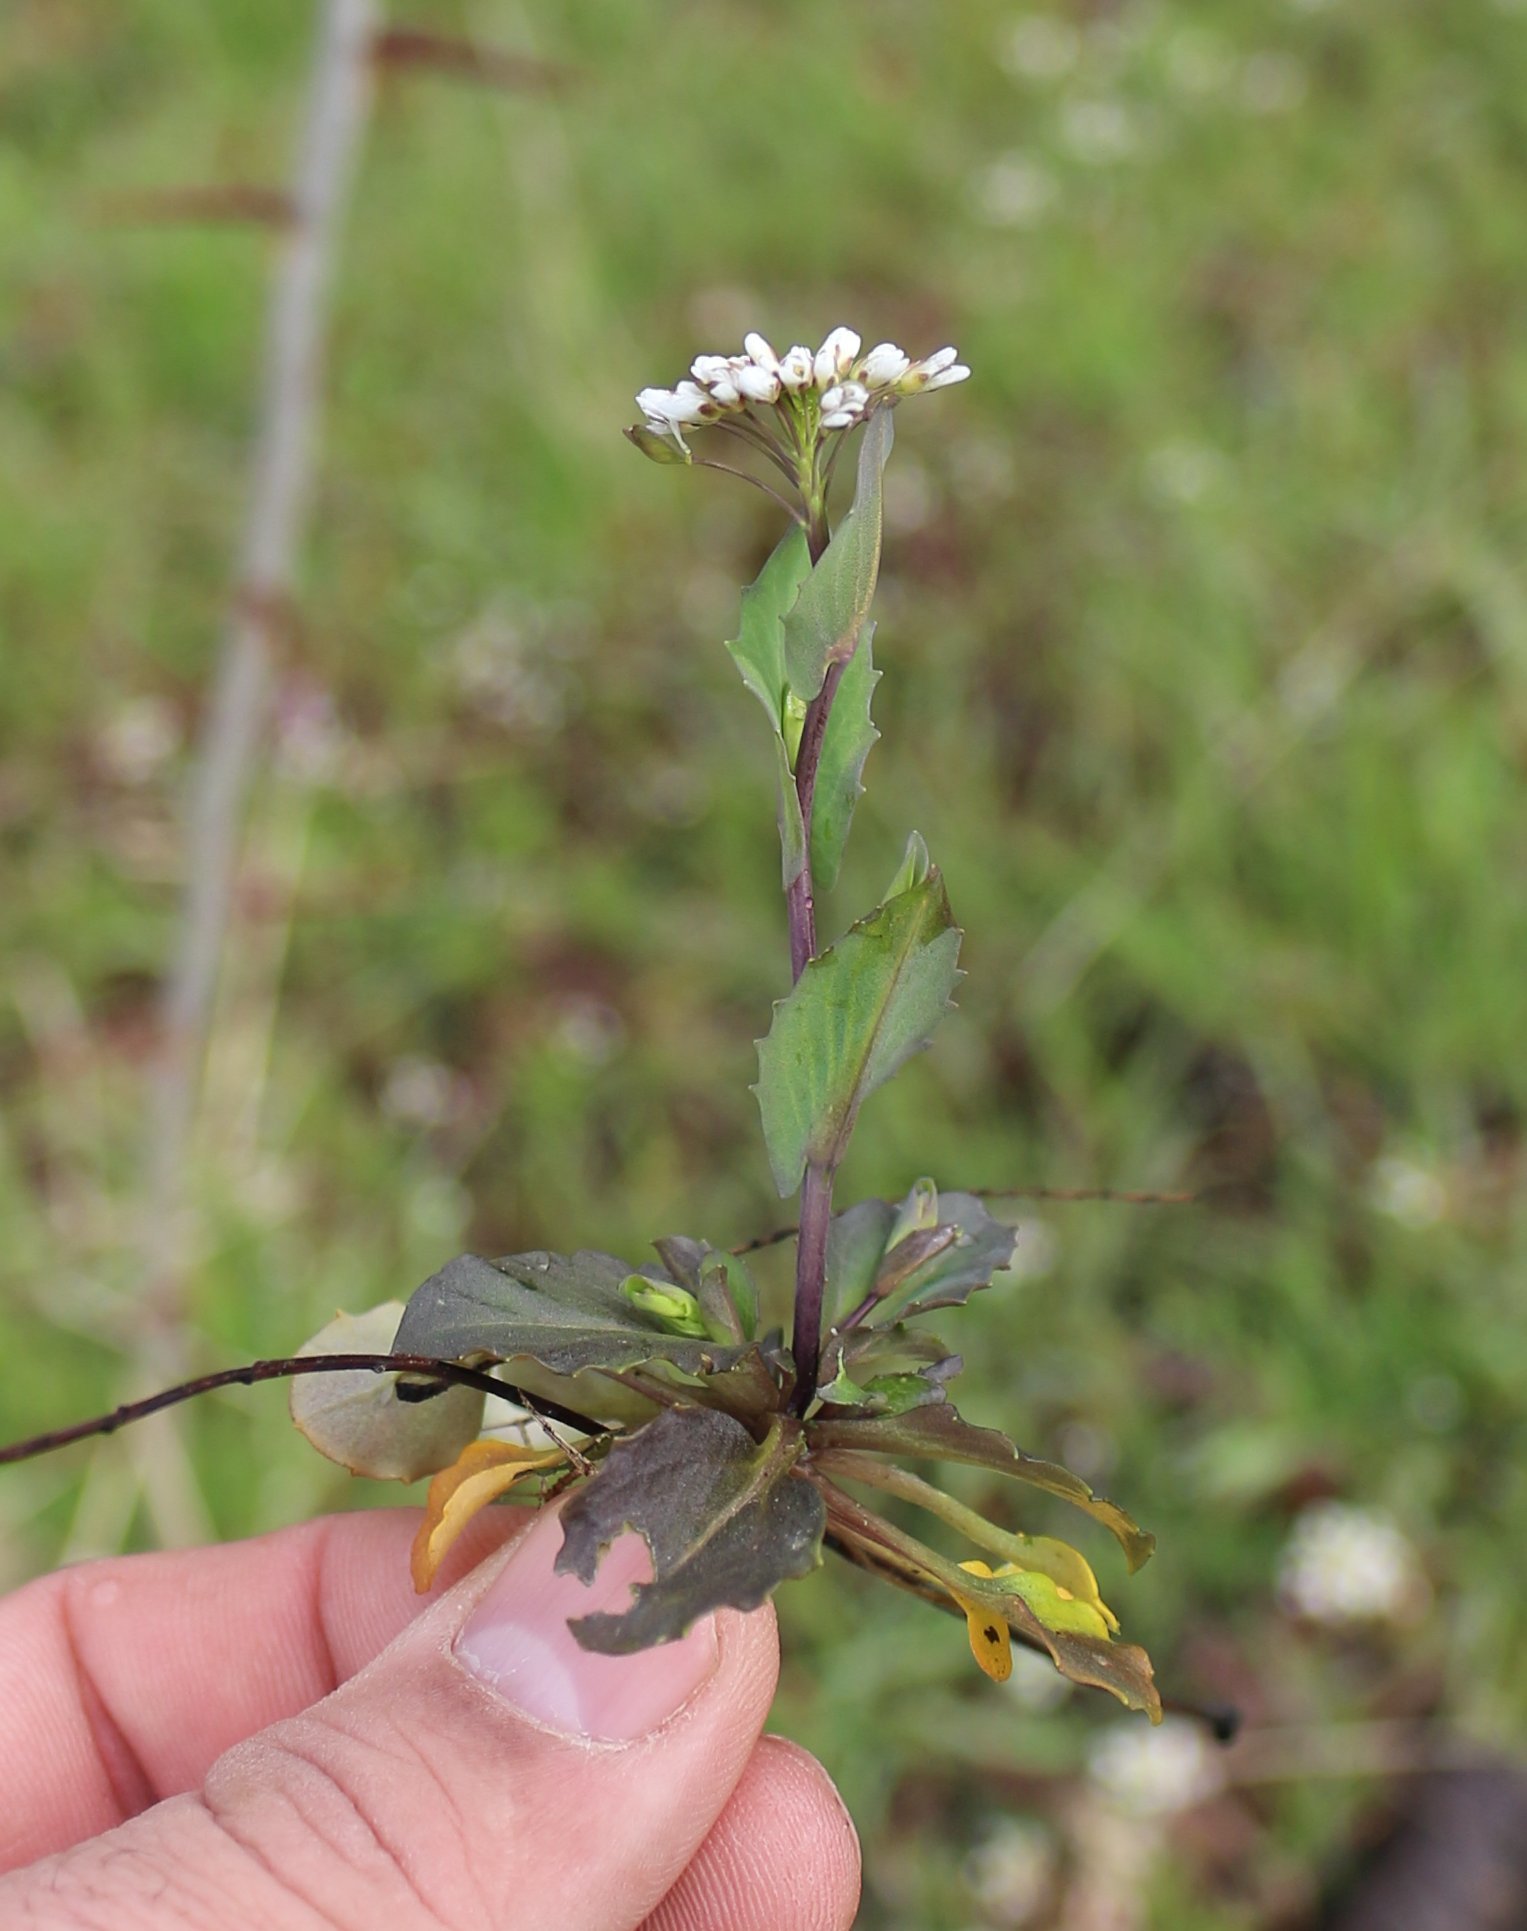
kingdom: Plantae
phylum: Tracheophyta
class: Magnoliopsida
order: Brassicales
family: Brassicaceae
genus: Noccaea
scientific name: Noccaea perfoliata
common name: Perfoliate pennycress
